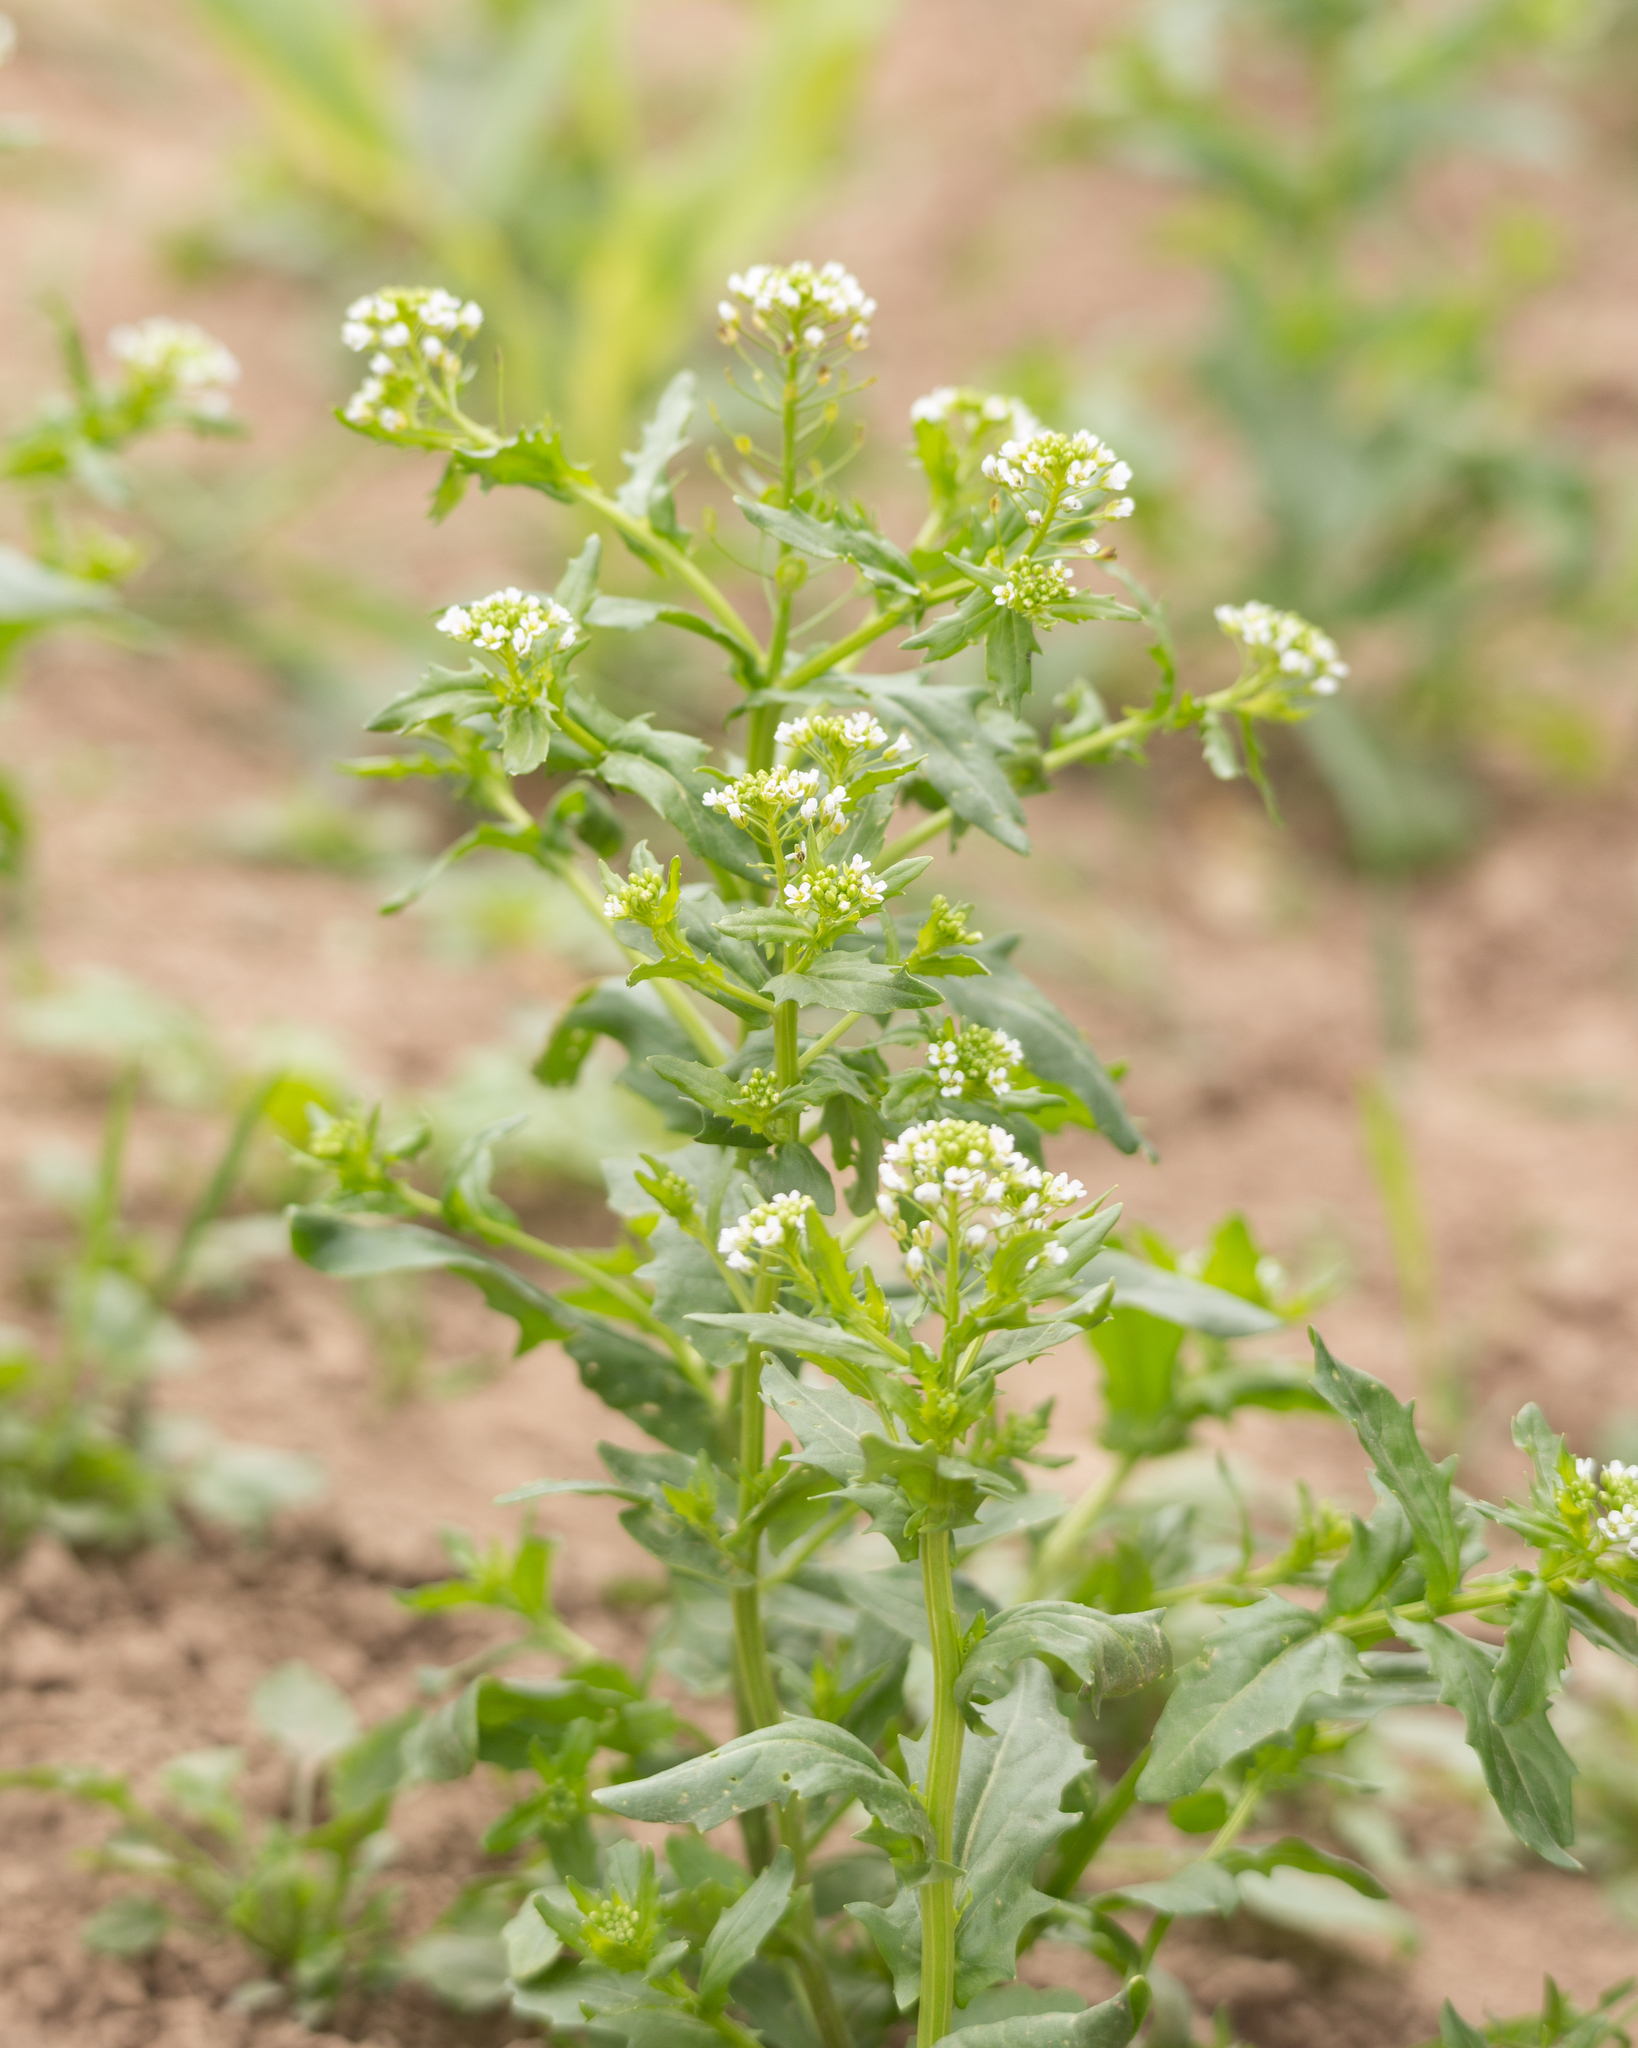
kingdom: Plantae
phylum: Tracheophyta
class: Magnoliopsida
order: Brassicales
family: Brassicaceae
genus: Thlaspi
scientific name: Thlaspi arvense
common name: Field pennycress
